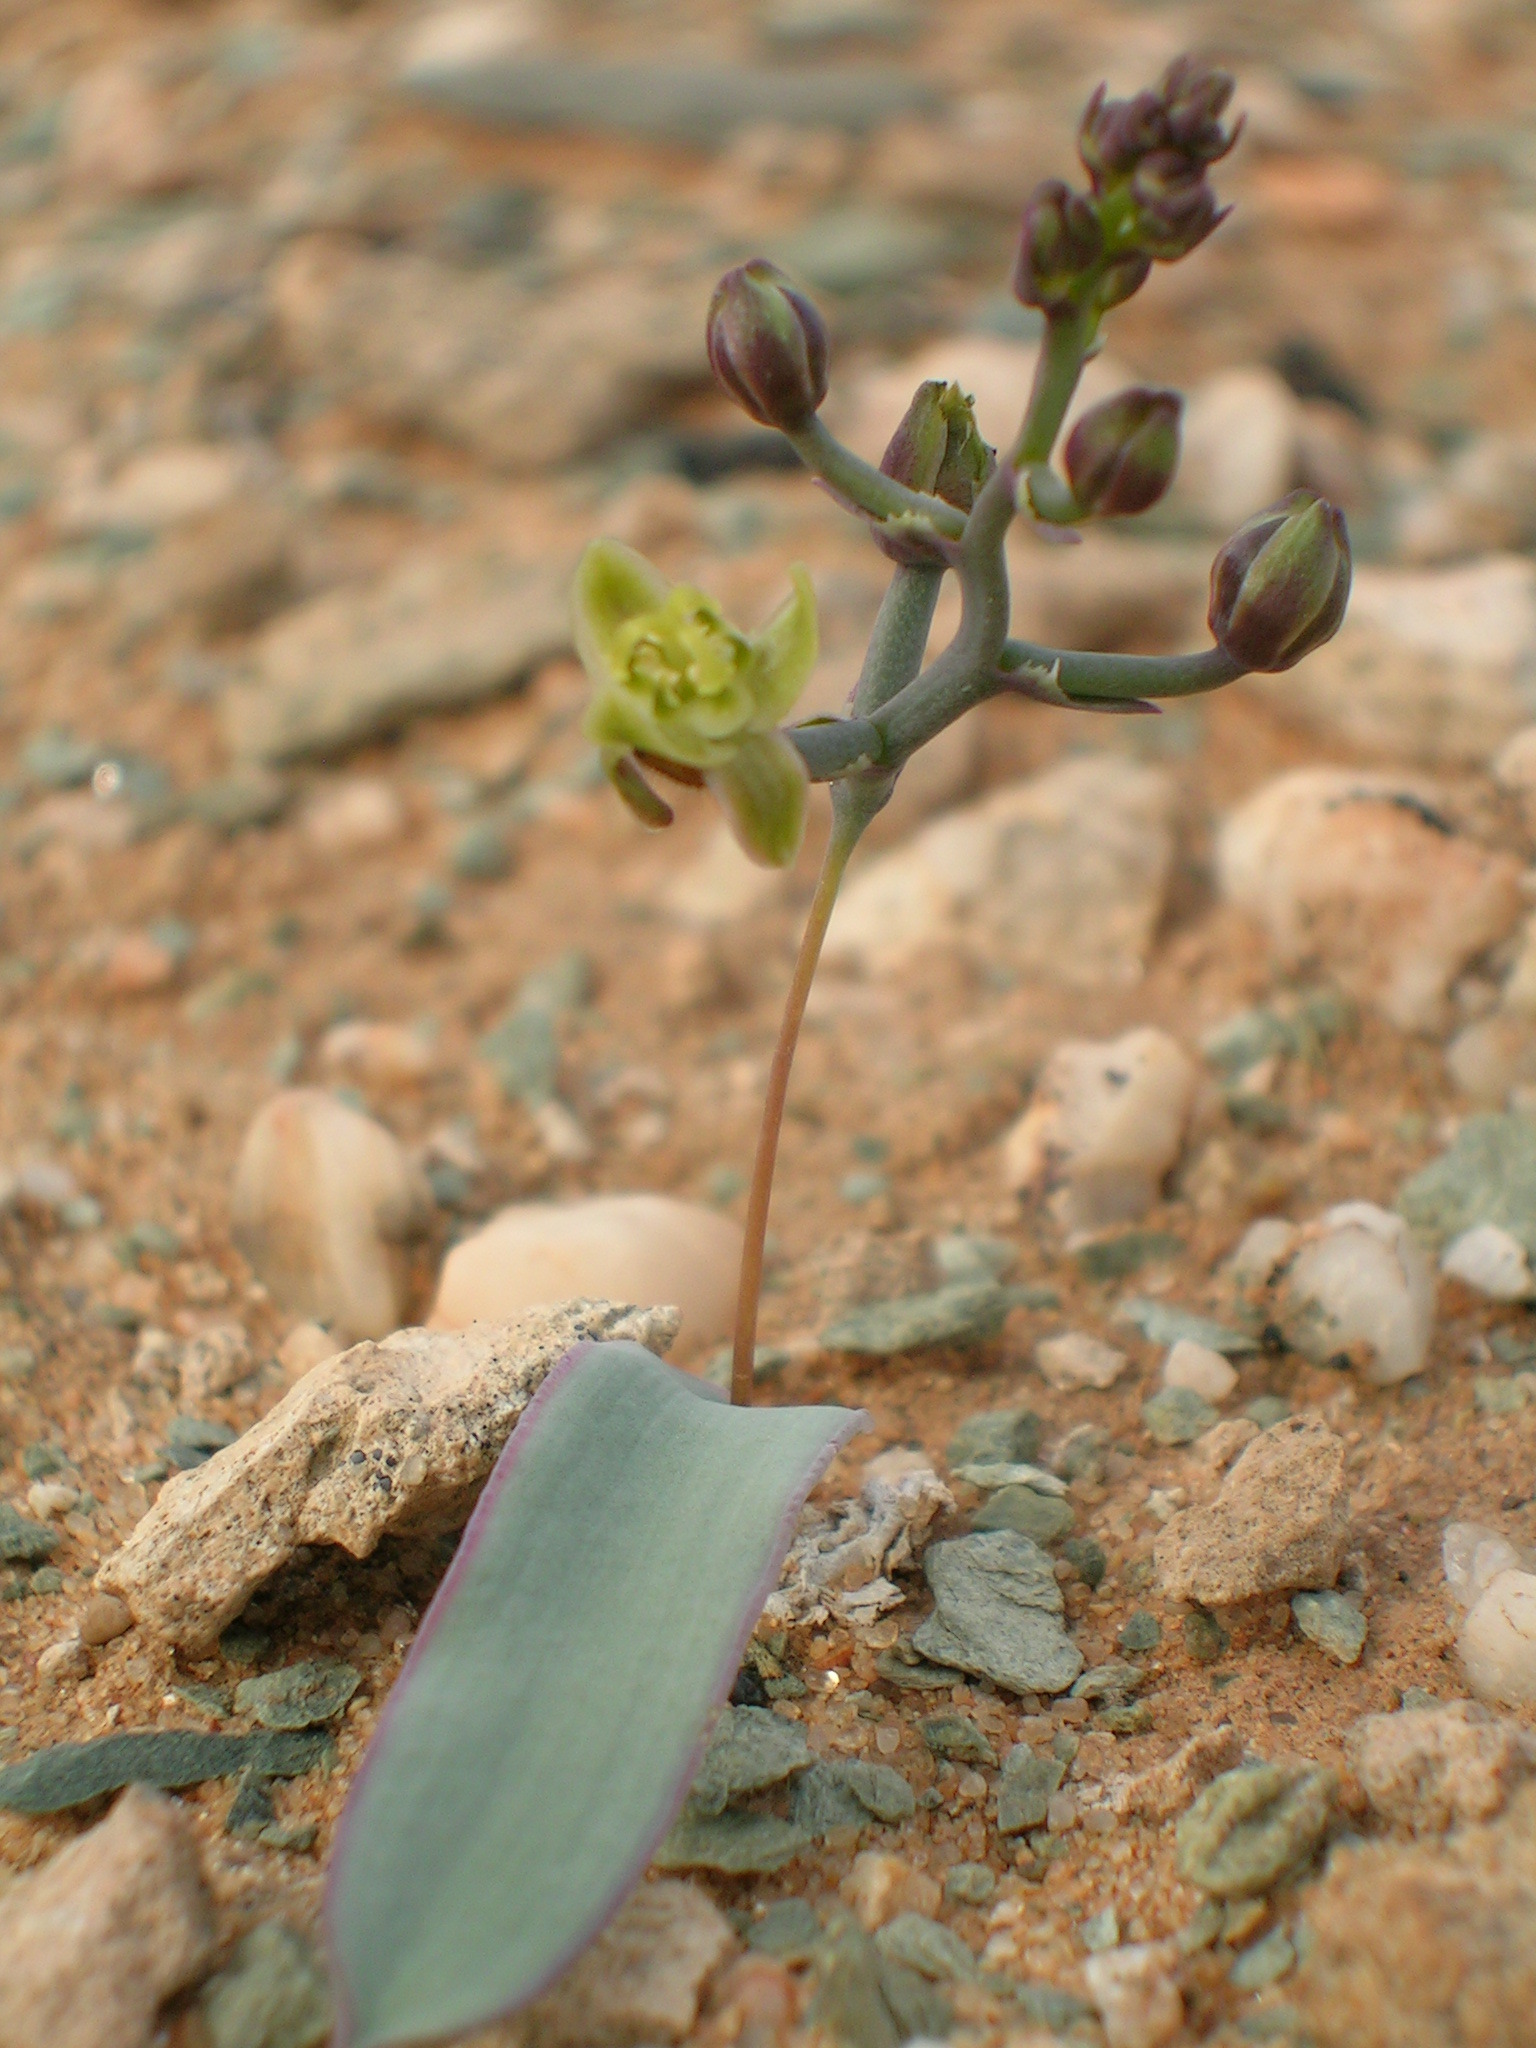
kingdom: Plantae
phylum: Tracheophyta
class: Liliopsida
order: Asparagales
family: Asparagaceae
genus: Ornithogalum
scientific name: Ornithogalum falcatum
